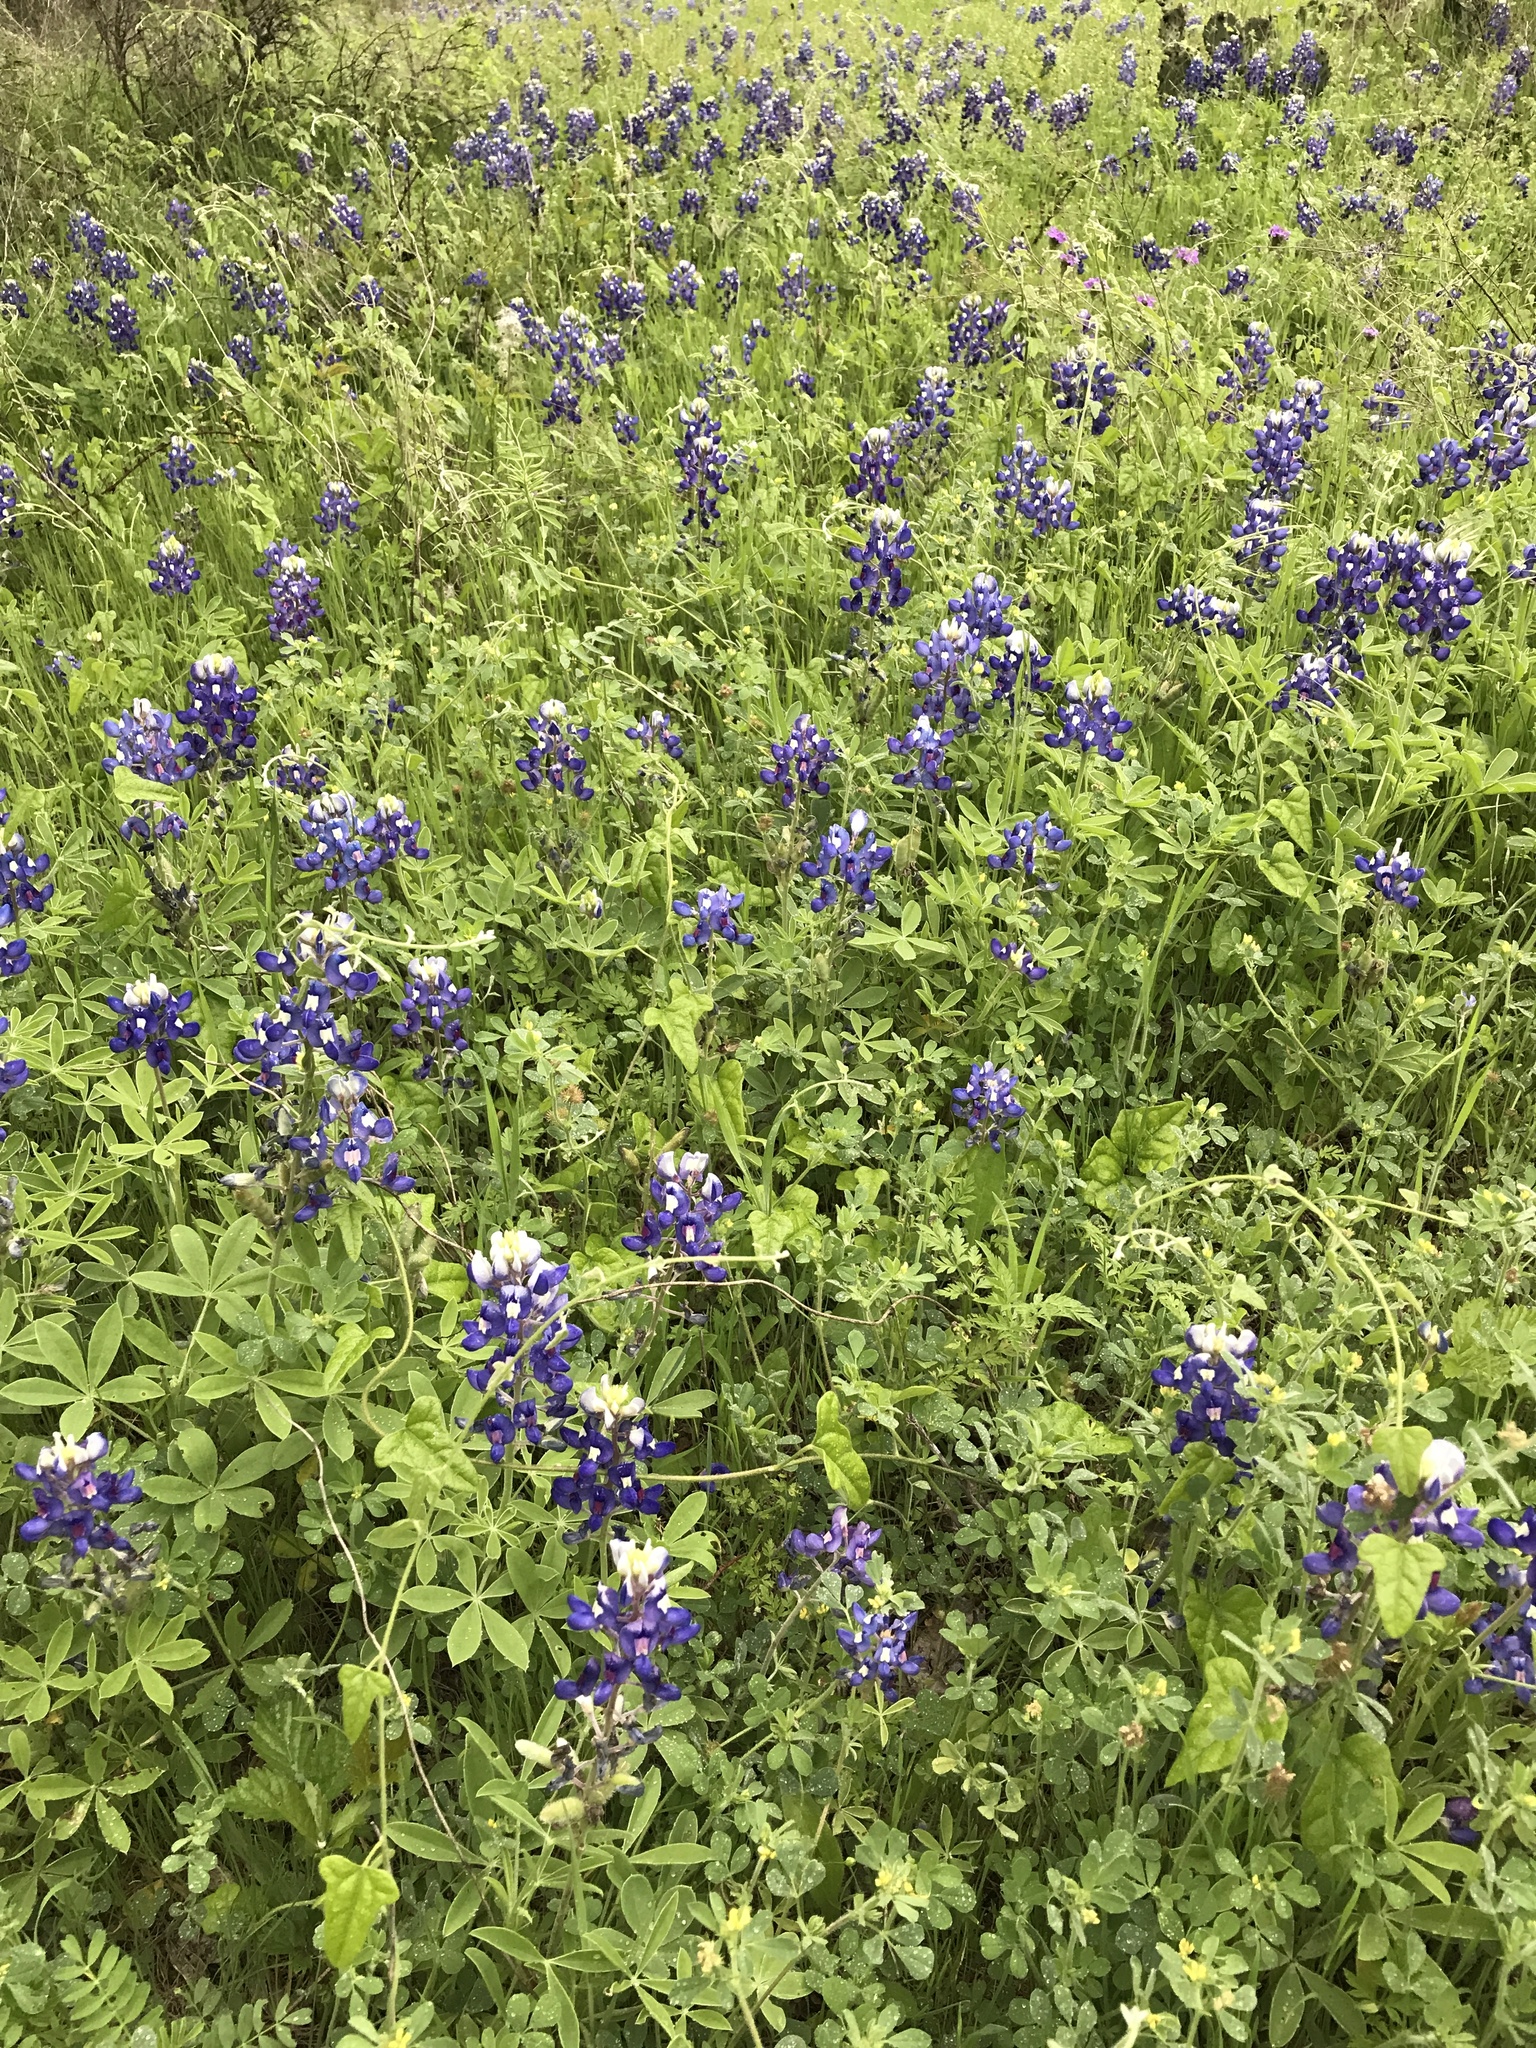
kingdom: Plantae
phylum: Tracheophyta
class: Magnoliopsida
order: Fabales
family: Fabaceae
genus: Lupinus
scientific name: Lupinus texensis
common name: Texas bluebonnet
